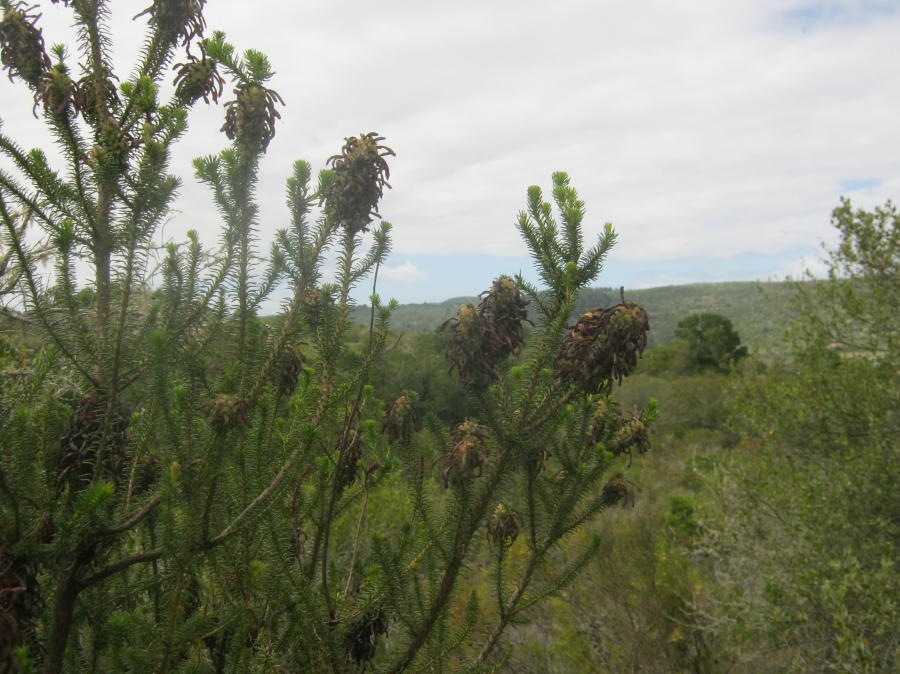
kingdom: Plantae
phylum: Tracheophyta
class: Magnoliopsida
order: Ericales
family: Ericaceae
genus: Erica
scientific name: Erica sessiliflora
